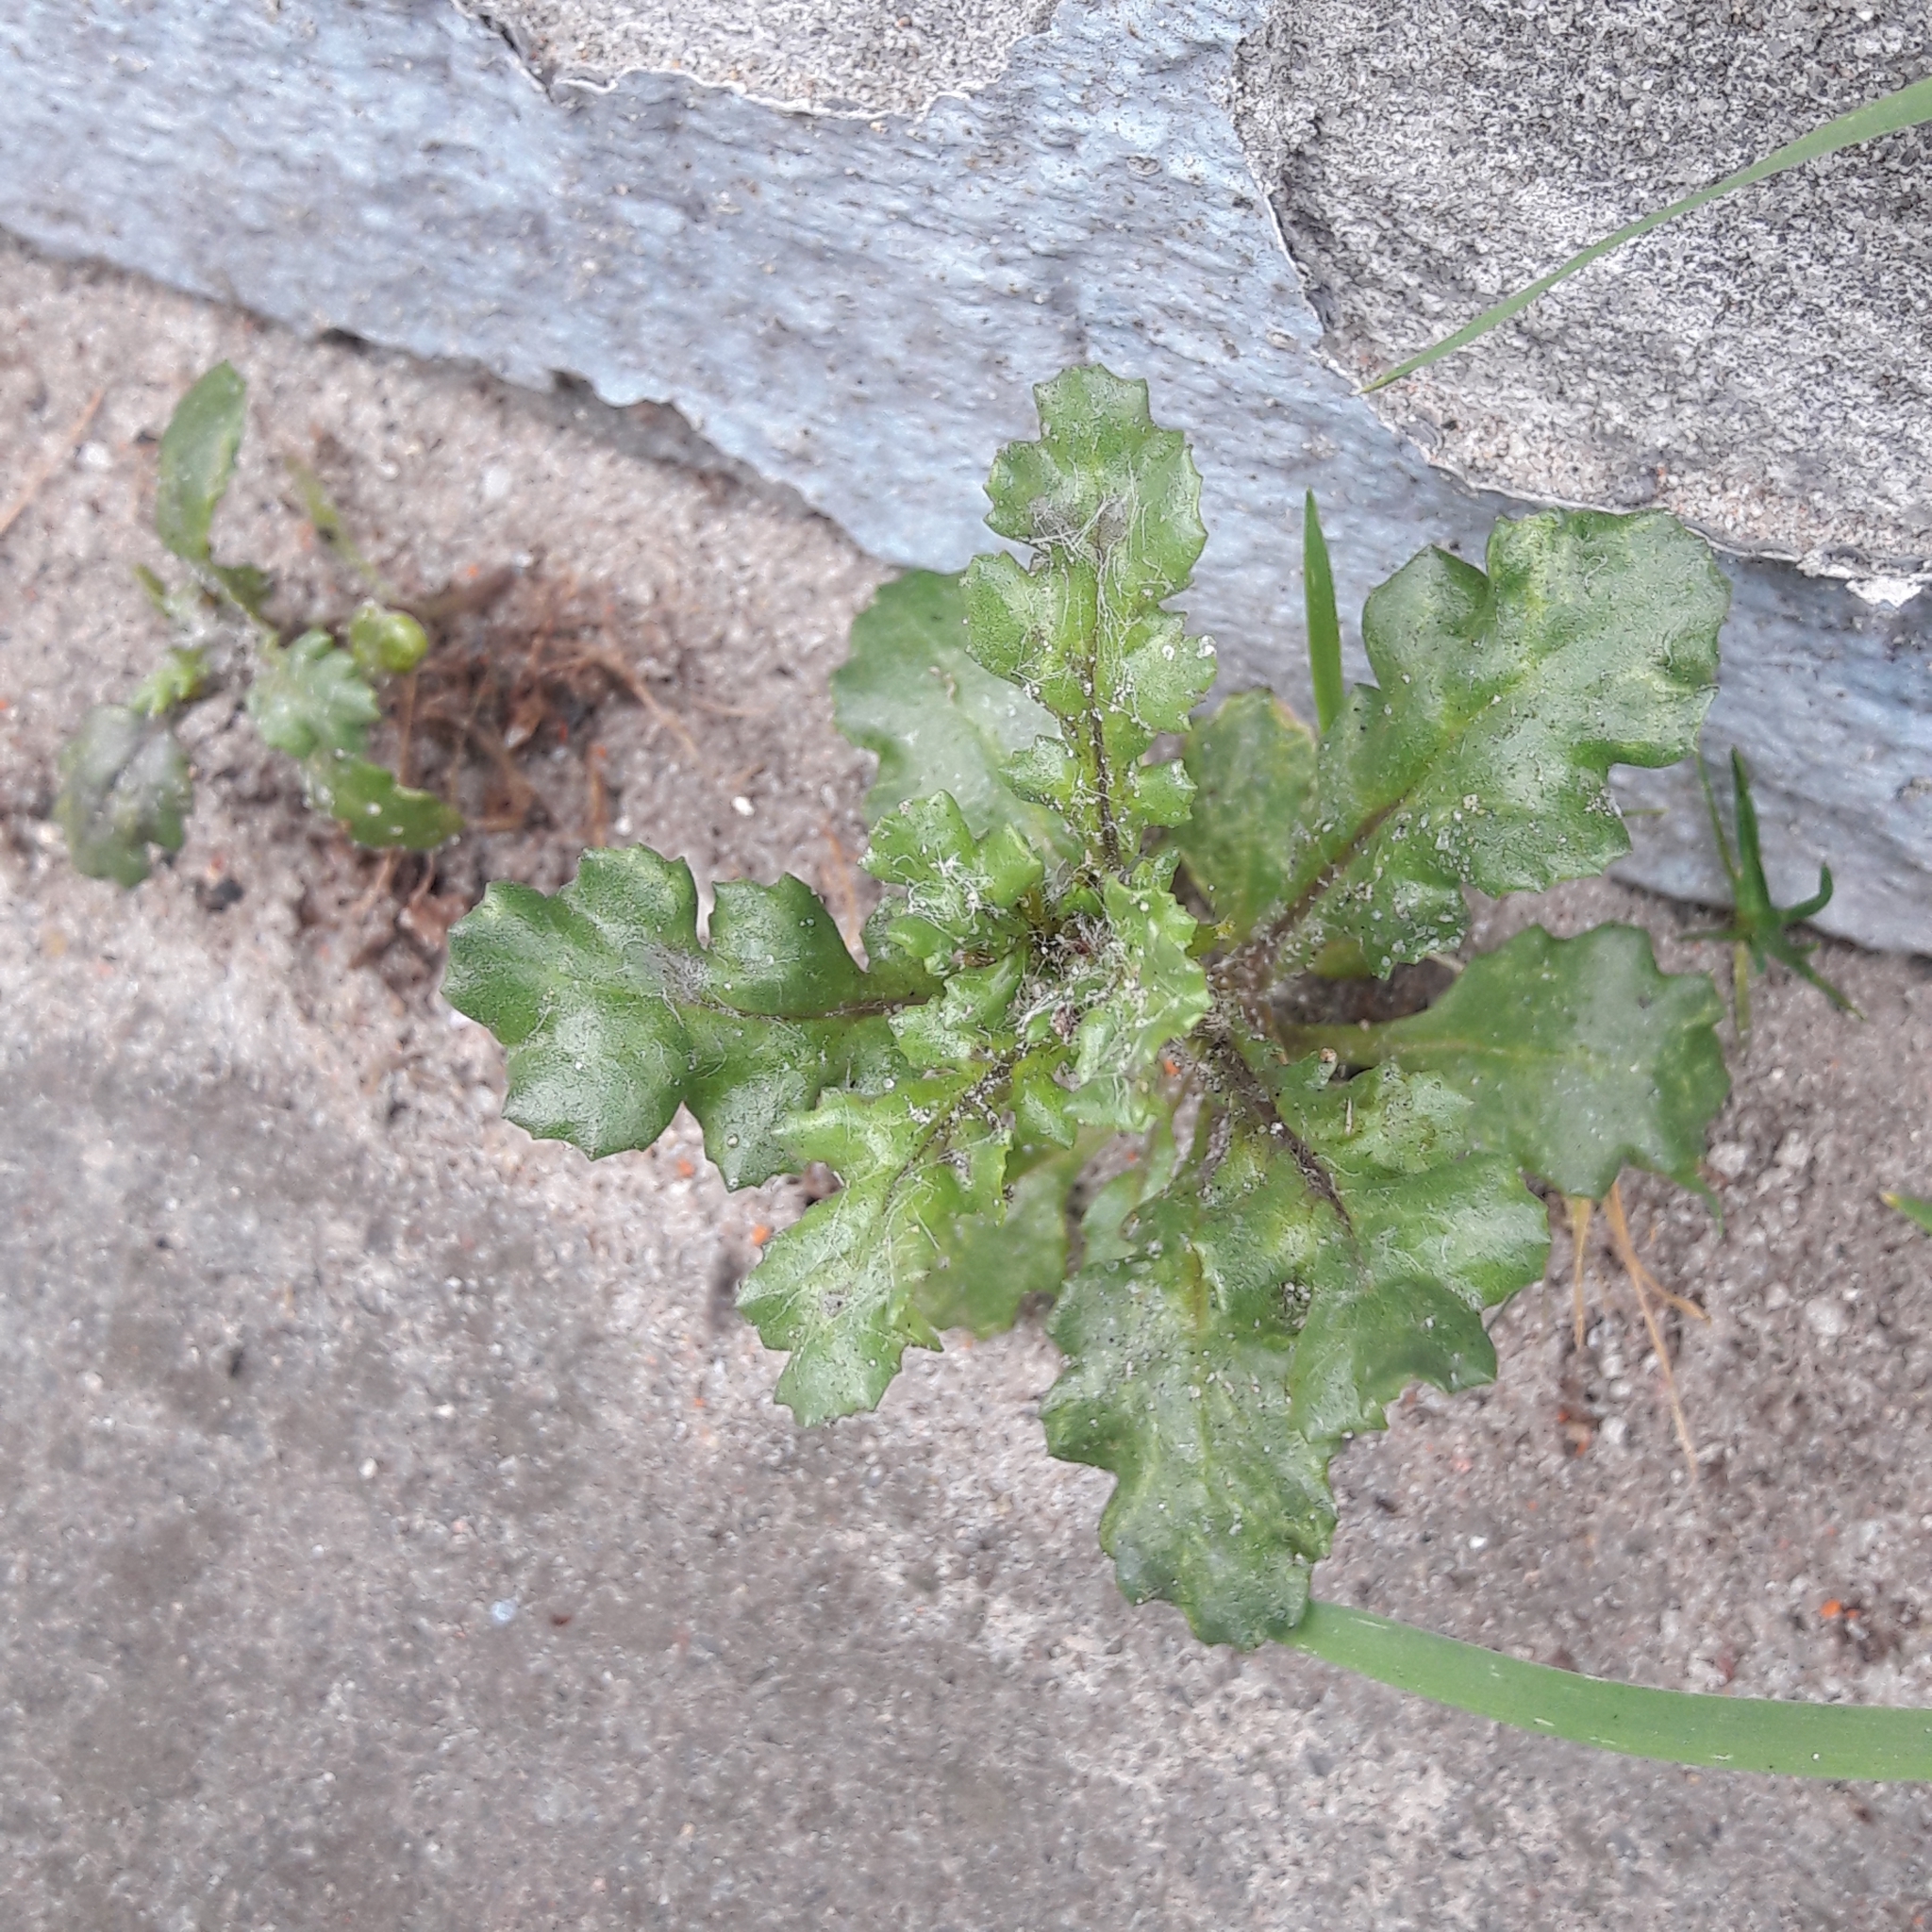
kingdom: Plantae
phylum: Tracheophyta
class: Magnoliopsida
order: Asterales
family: Asteraceae
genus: Senecio
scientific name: Senecio vulgaris
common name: Old-man-in-the-spring
